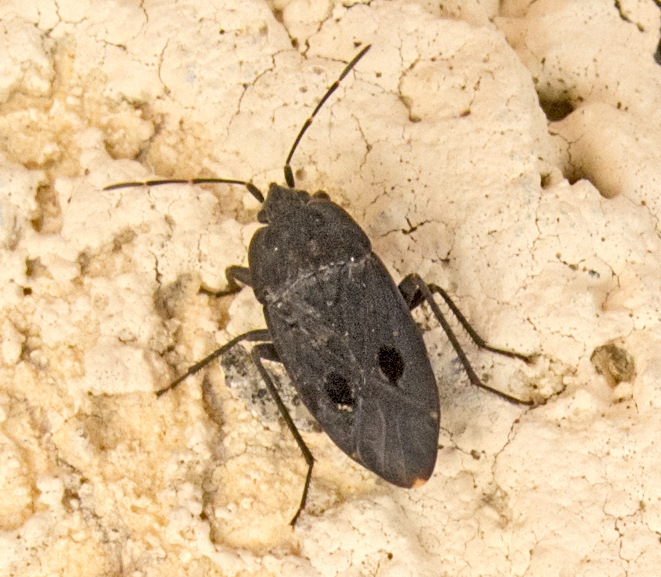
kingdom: Animalia
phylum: Arthropoda
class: Insecta
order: Hemiptera
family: Rhyparochromidae
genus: Graptopeltus
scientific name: Graptopeltus validus
